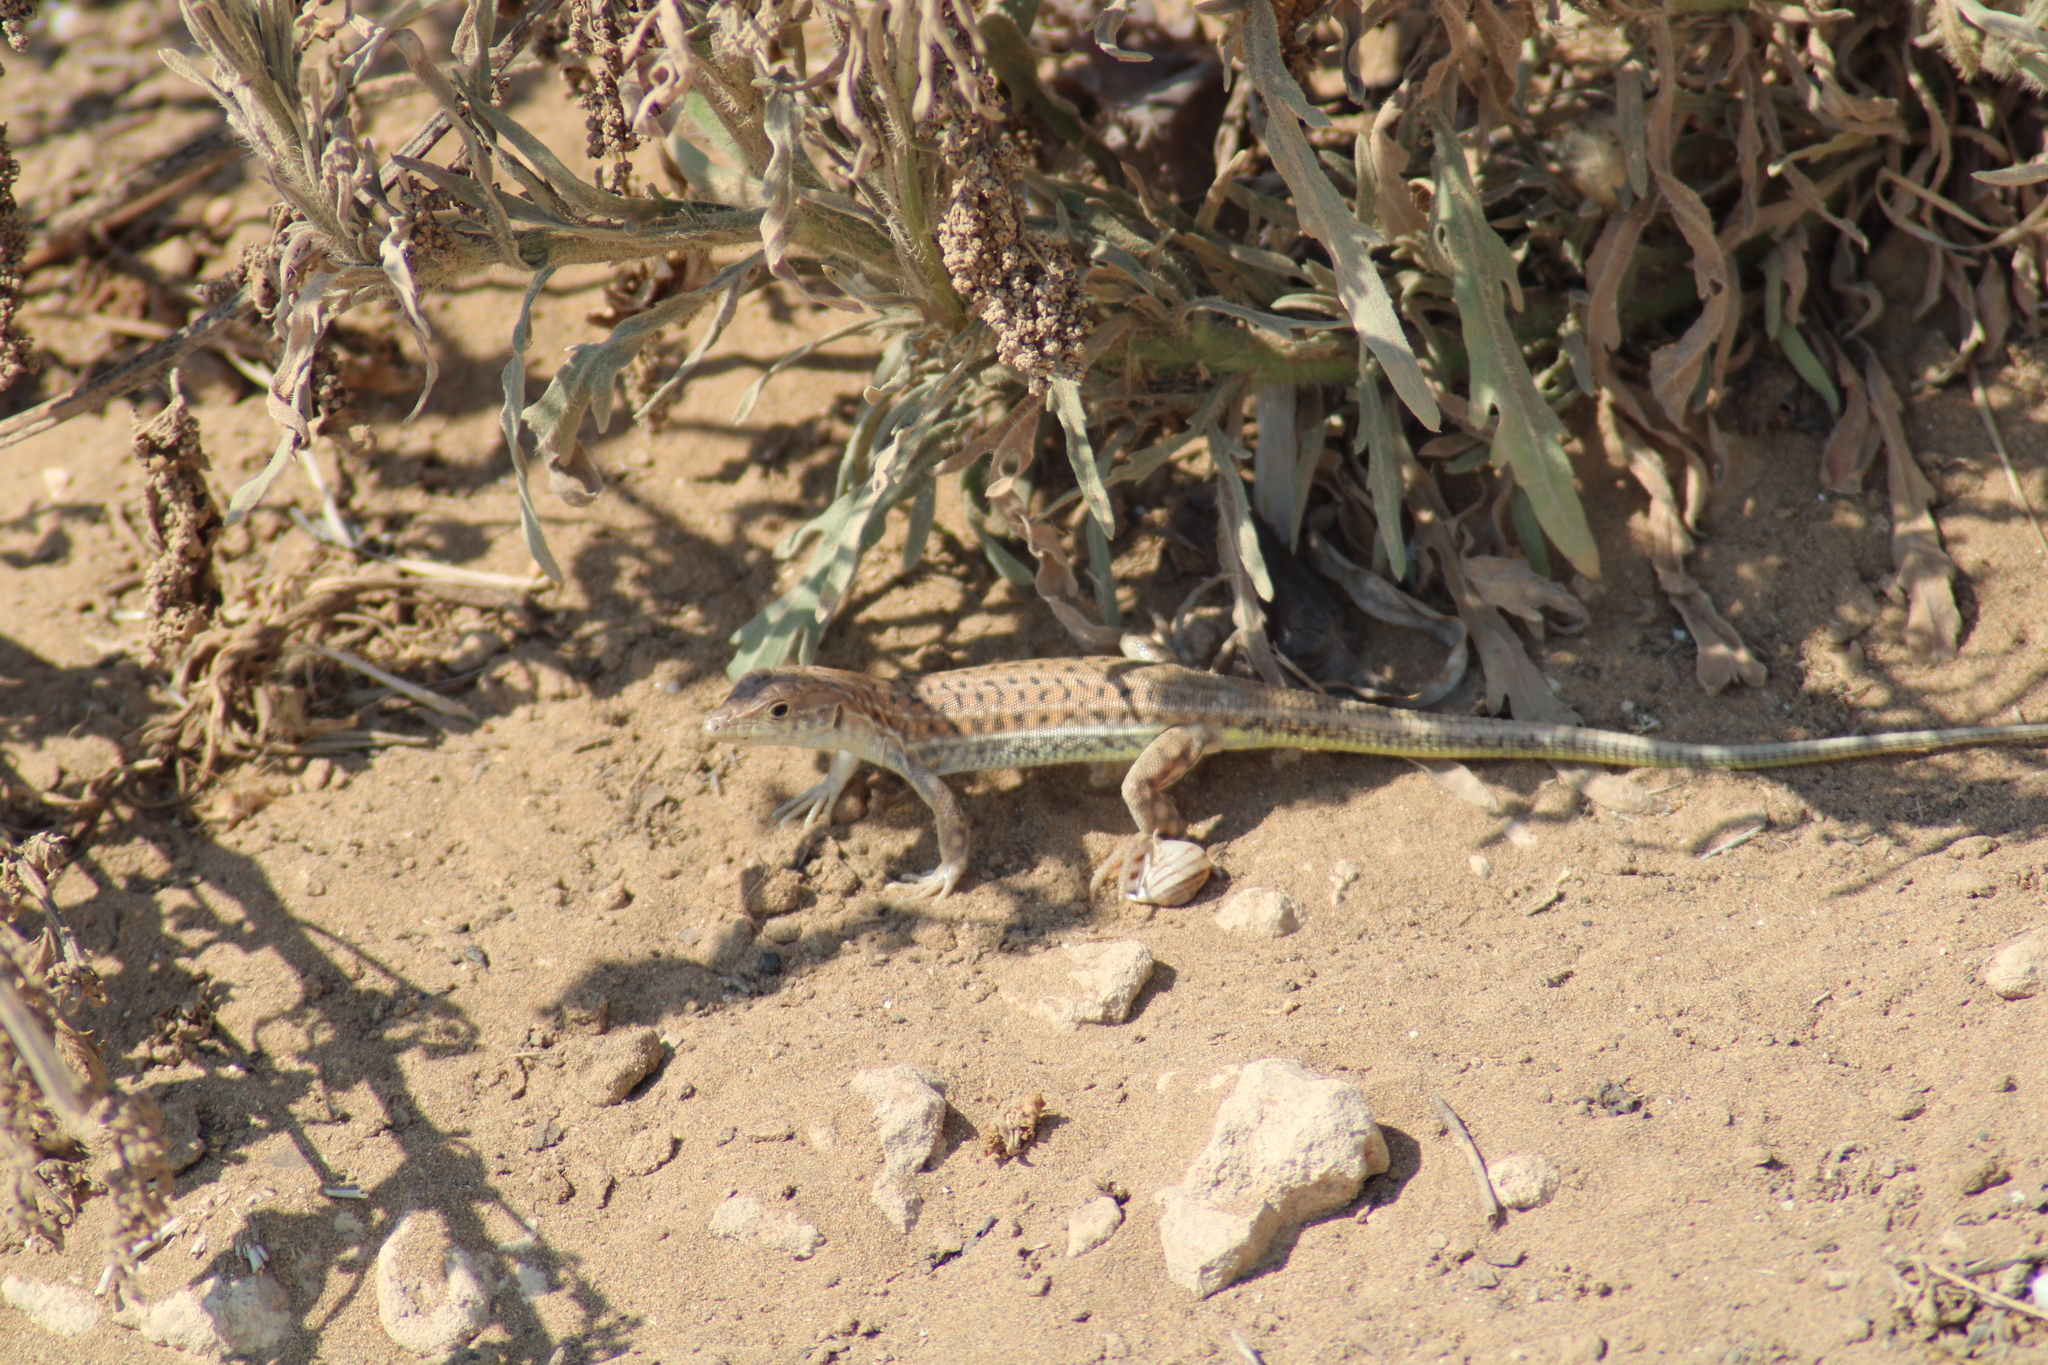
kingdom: Animalia
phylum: Chordata
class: Squamata
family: Lacertidae
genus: Acanthodactylus
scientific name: Acanthodactylus schreiberi
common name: Schreiber's fringe-fingered lizard
